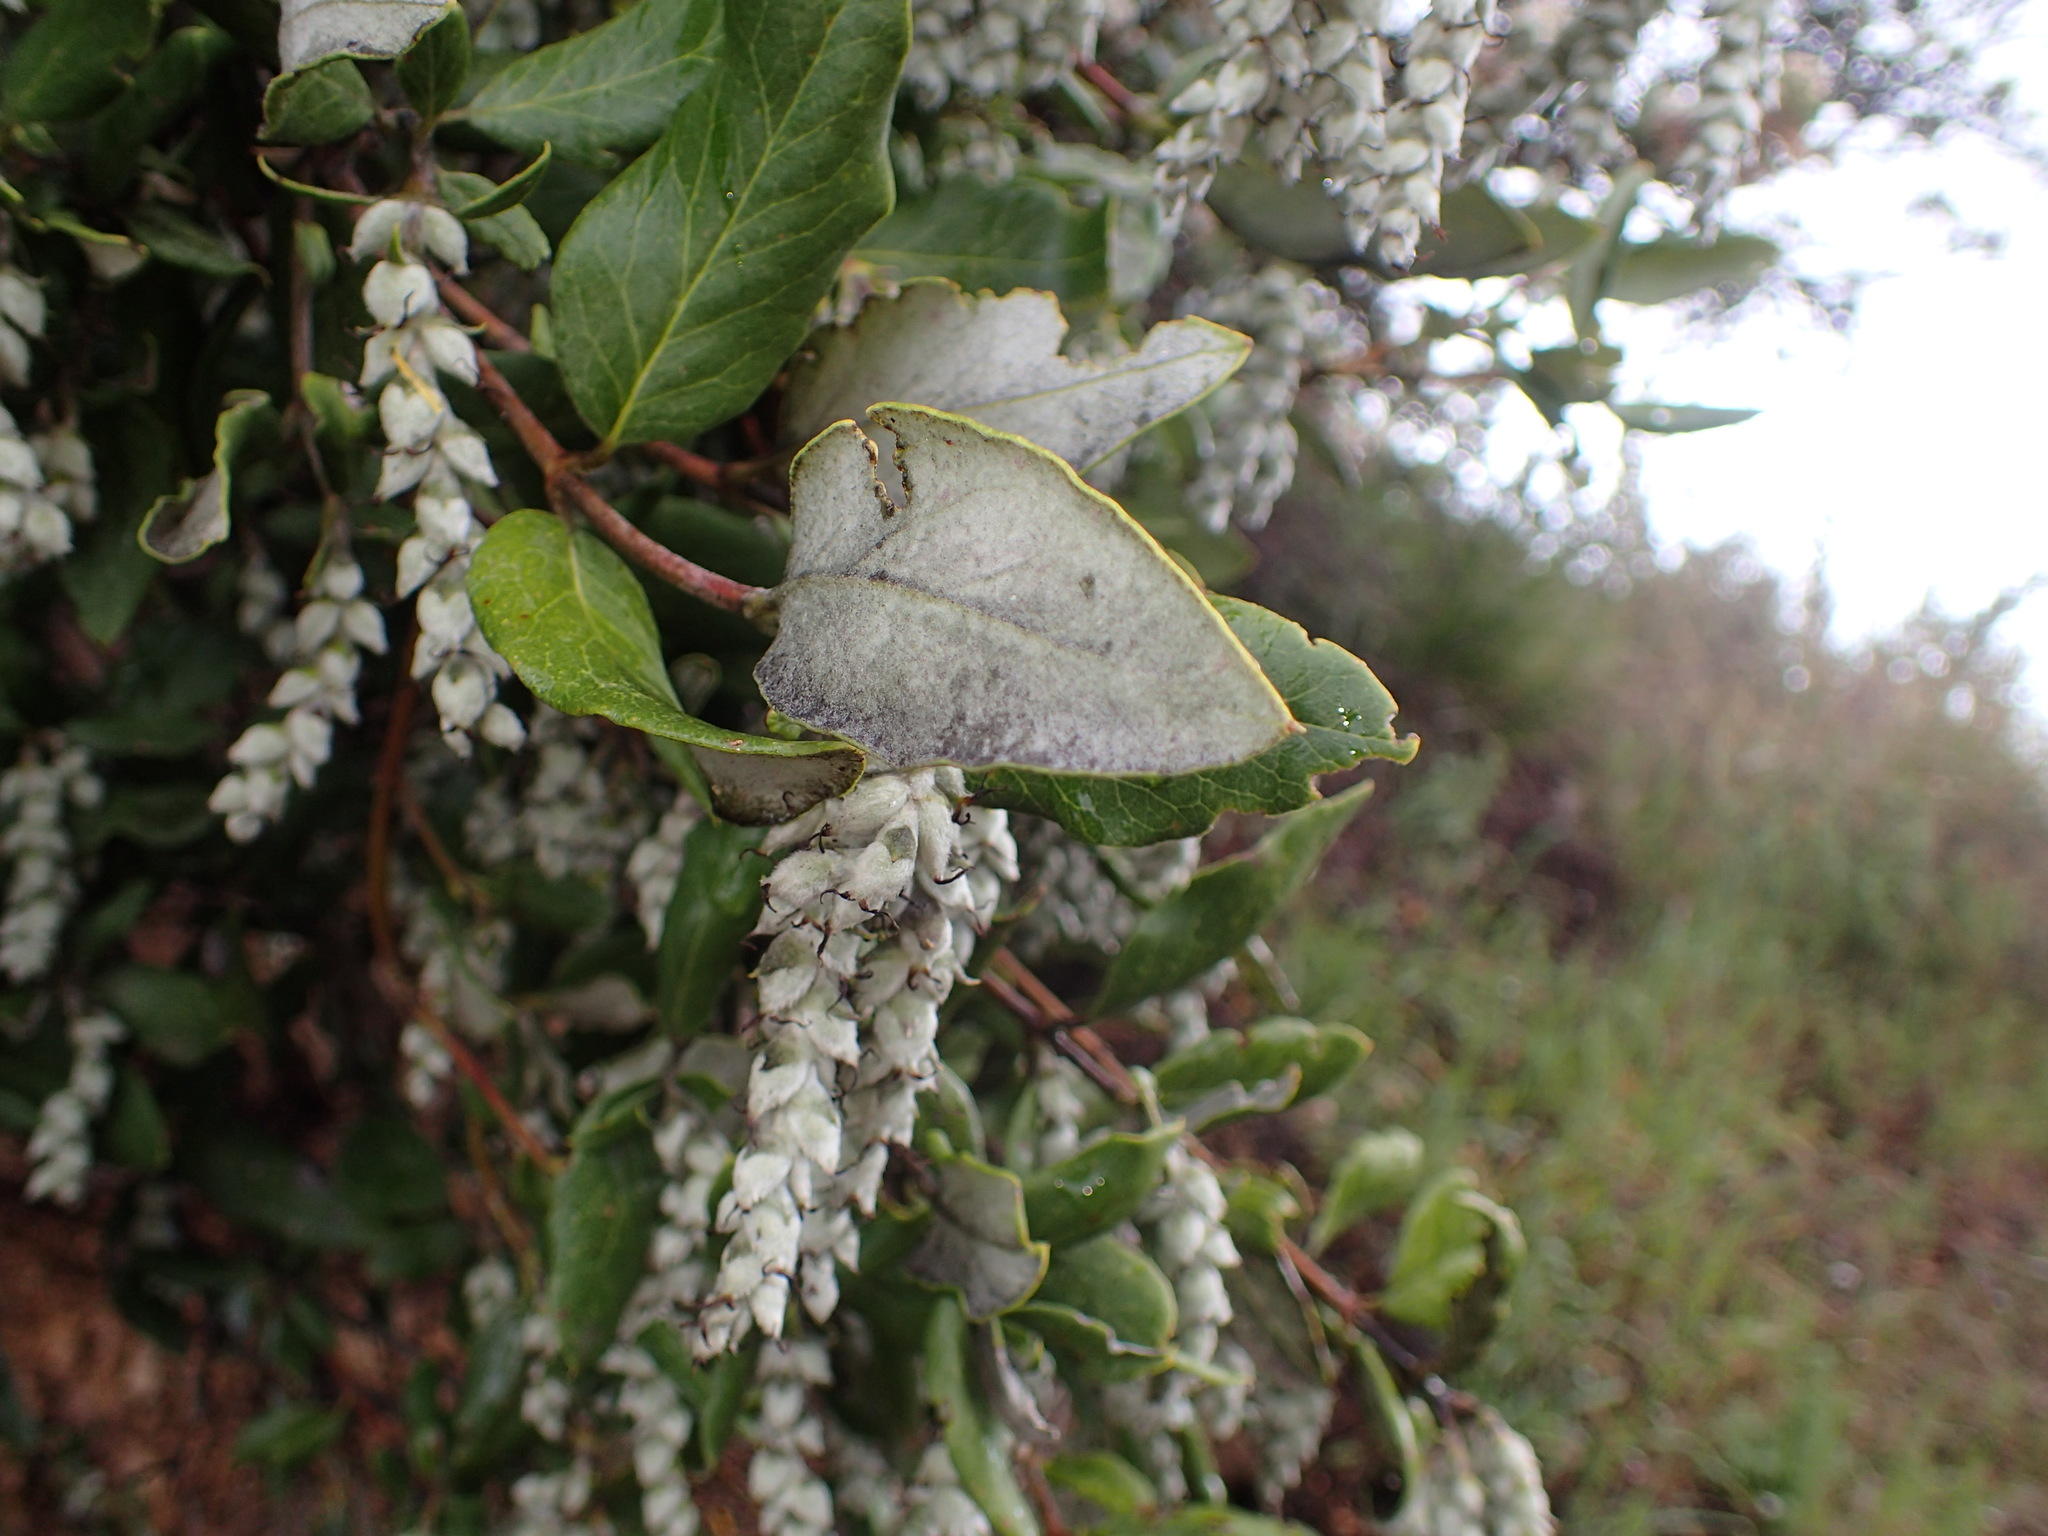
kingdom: Plantae
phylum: Tracheophyta
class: Magnoliopsida
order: Garryales
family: Garryaceae
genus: Garrya
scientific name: Garrya veatchii
